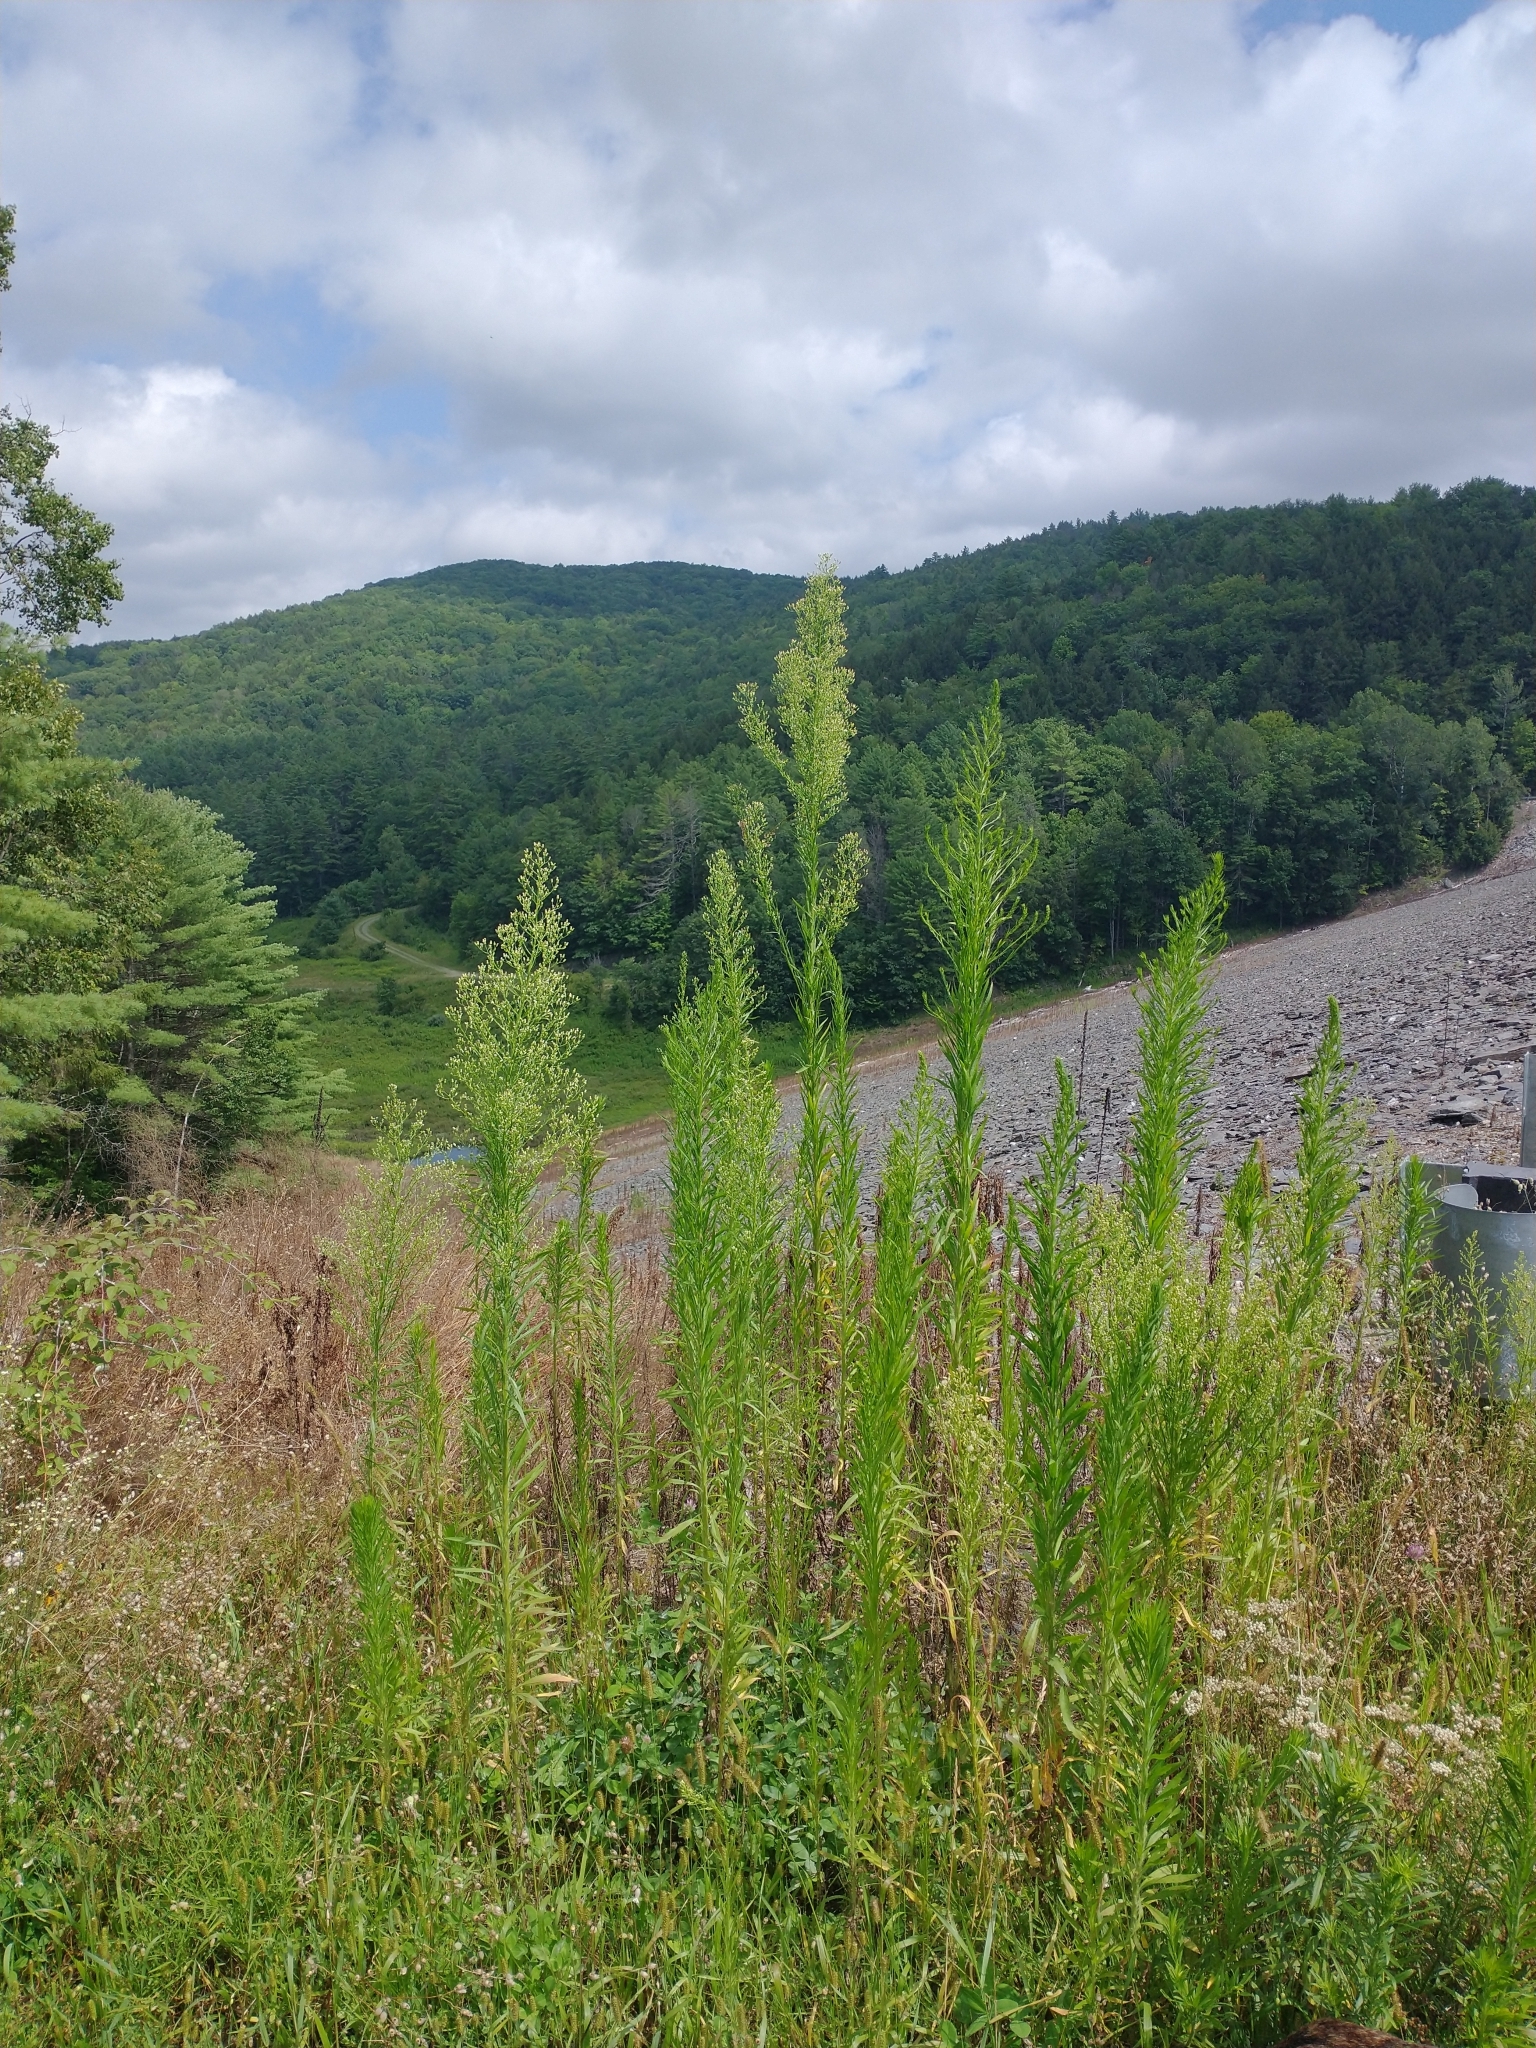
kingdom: Plantae
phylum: Tracheophyta
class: Magnoliopsida
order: Asterales
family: Asteraceae
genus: Erigeron
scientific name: Erigeron canadensis
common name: Canadian fleabane
